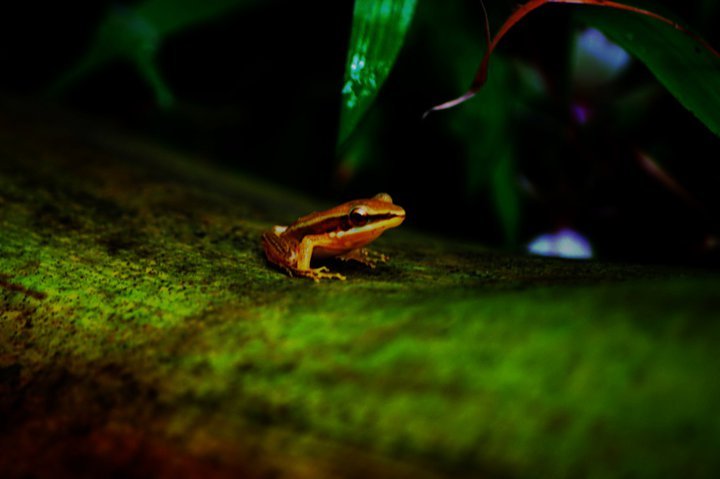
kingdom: Animalia
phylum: Chordata
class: Amphibia
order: Anura
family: Ranidae
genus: Indosylvirana
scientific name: Indosylvirana aurantiaca
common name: Boulenger's golden-backed frog
